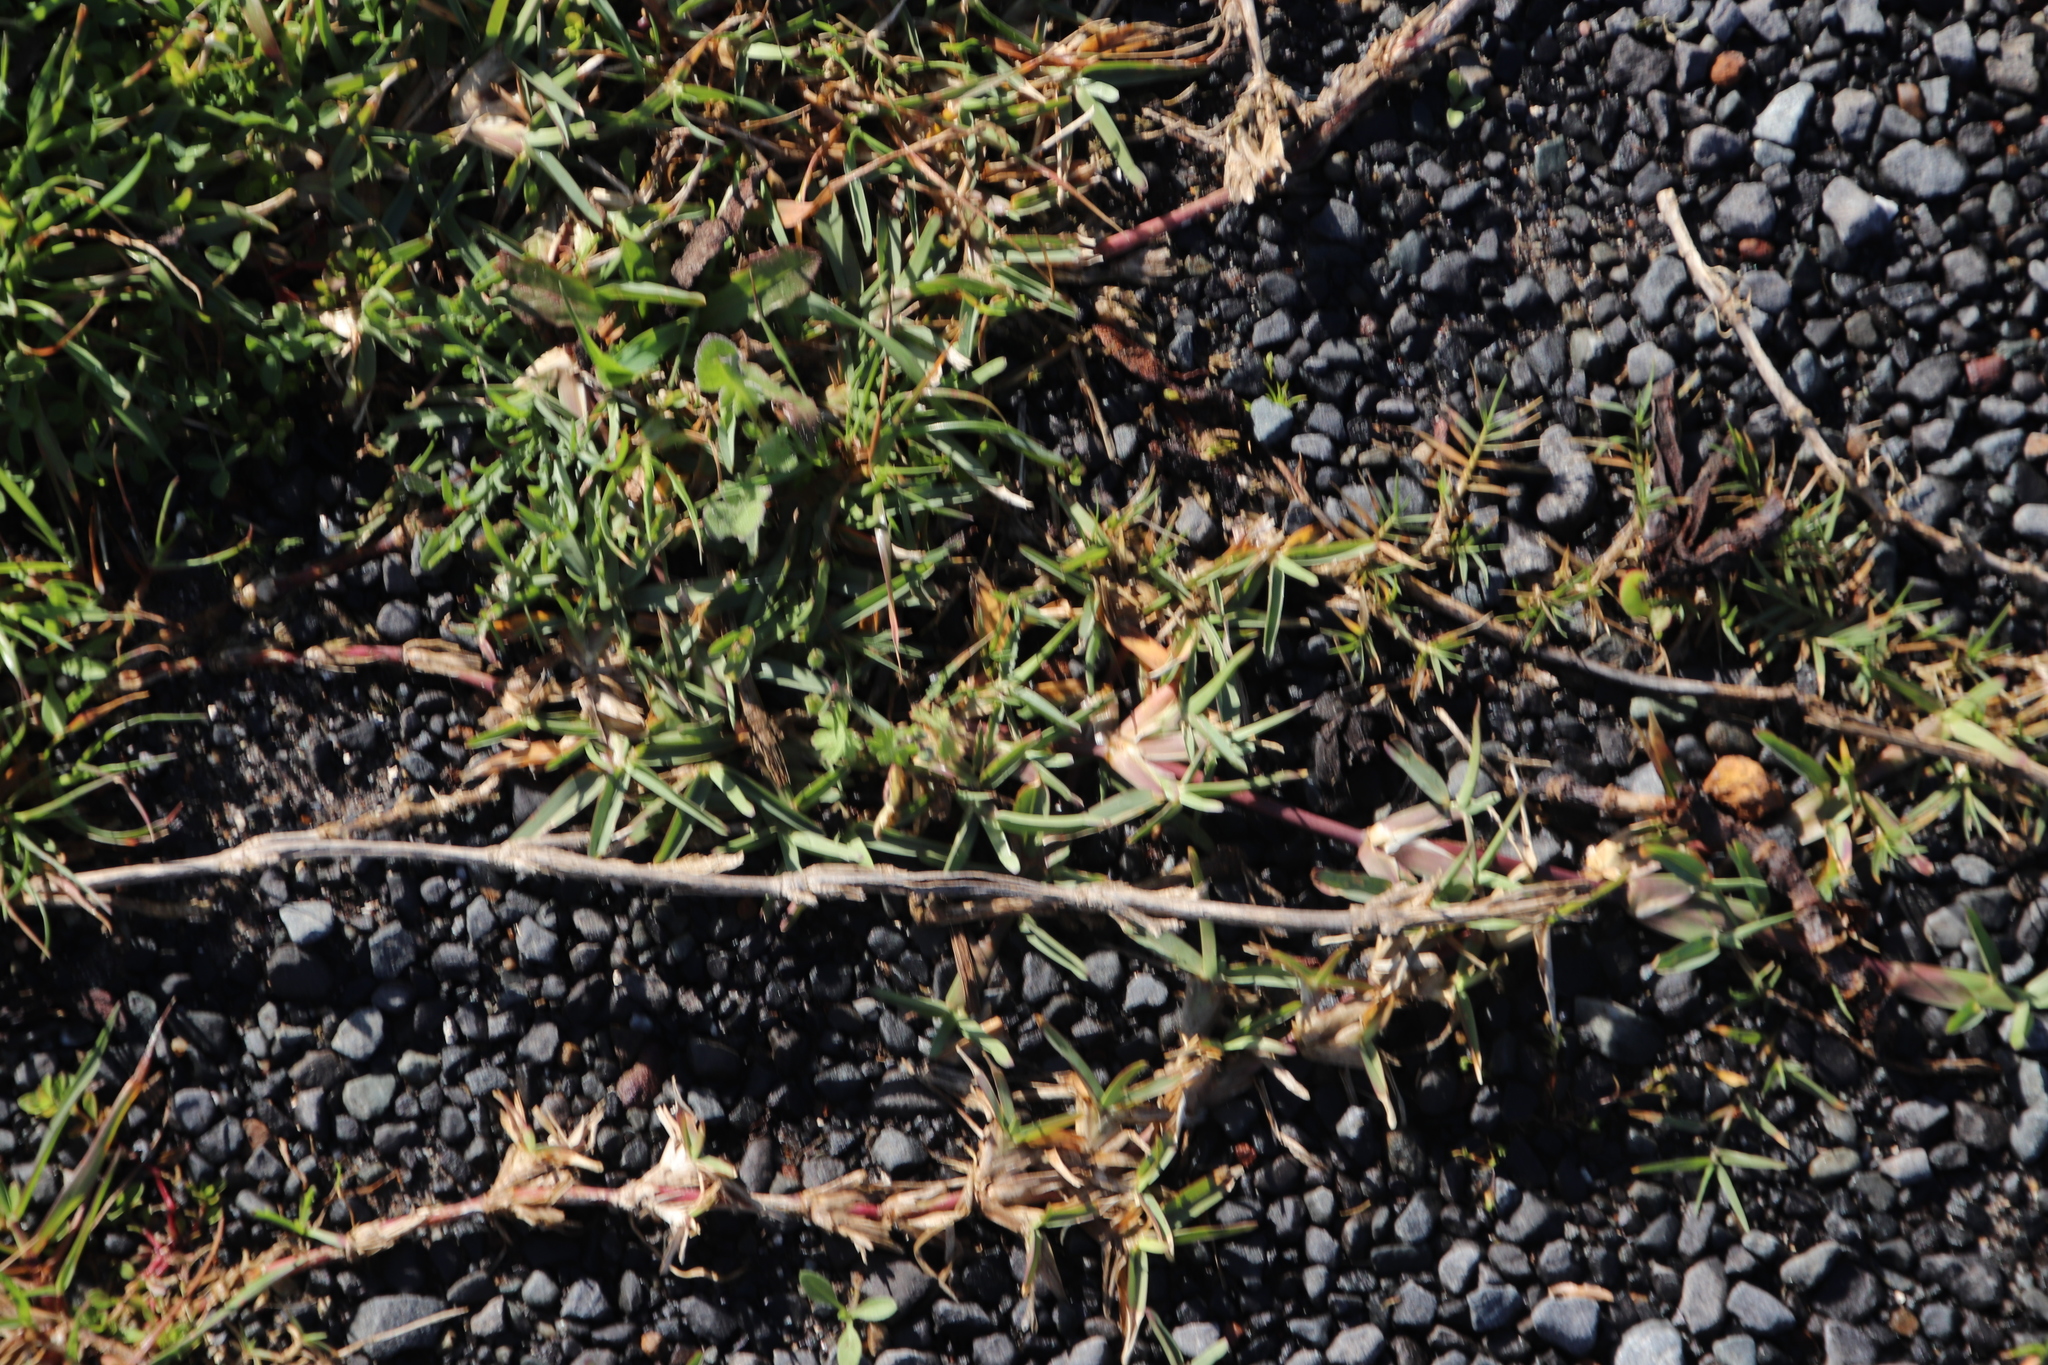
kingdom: Plantae
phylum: Tracheophyta
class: Liliopsida
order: Poales
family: Poaceae
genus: Stenotaphrum
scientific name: Stenotaphrum secundatum
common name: St. augustine grass
